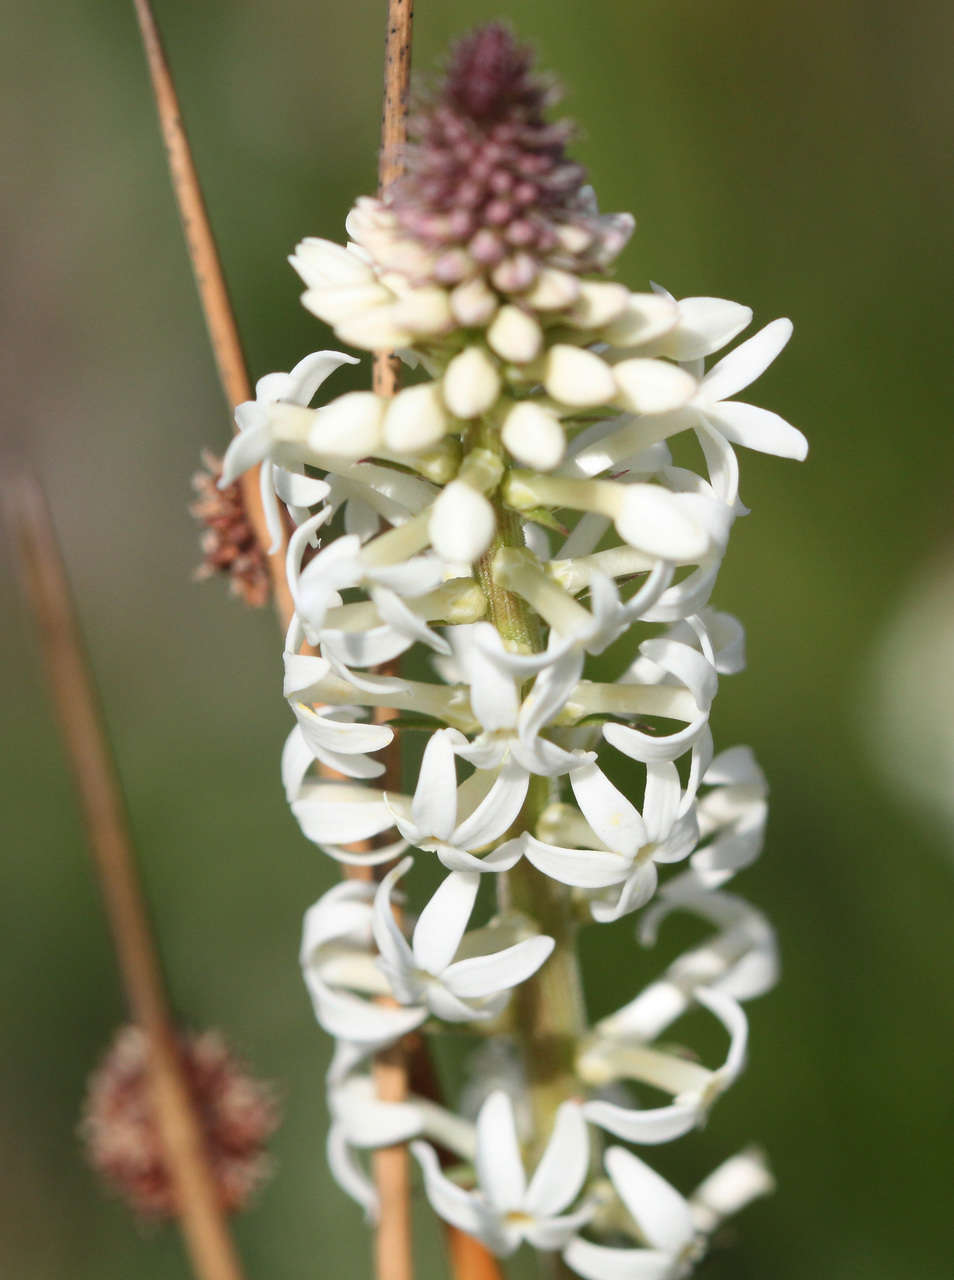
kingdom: Plantae
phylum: Tracheophyta
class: Magnoliopsida
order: Celastrales
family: Celastraceae
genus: Stackhousia
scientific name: Stackhousia monogyna
